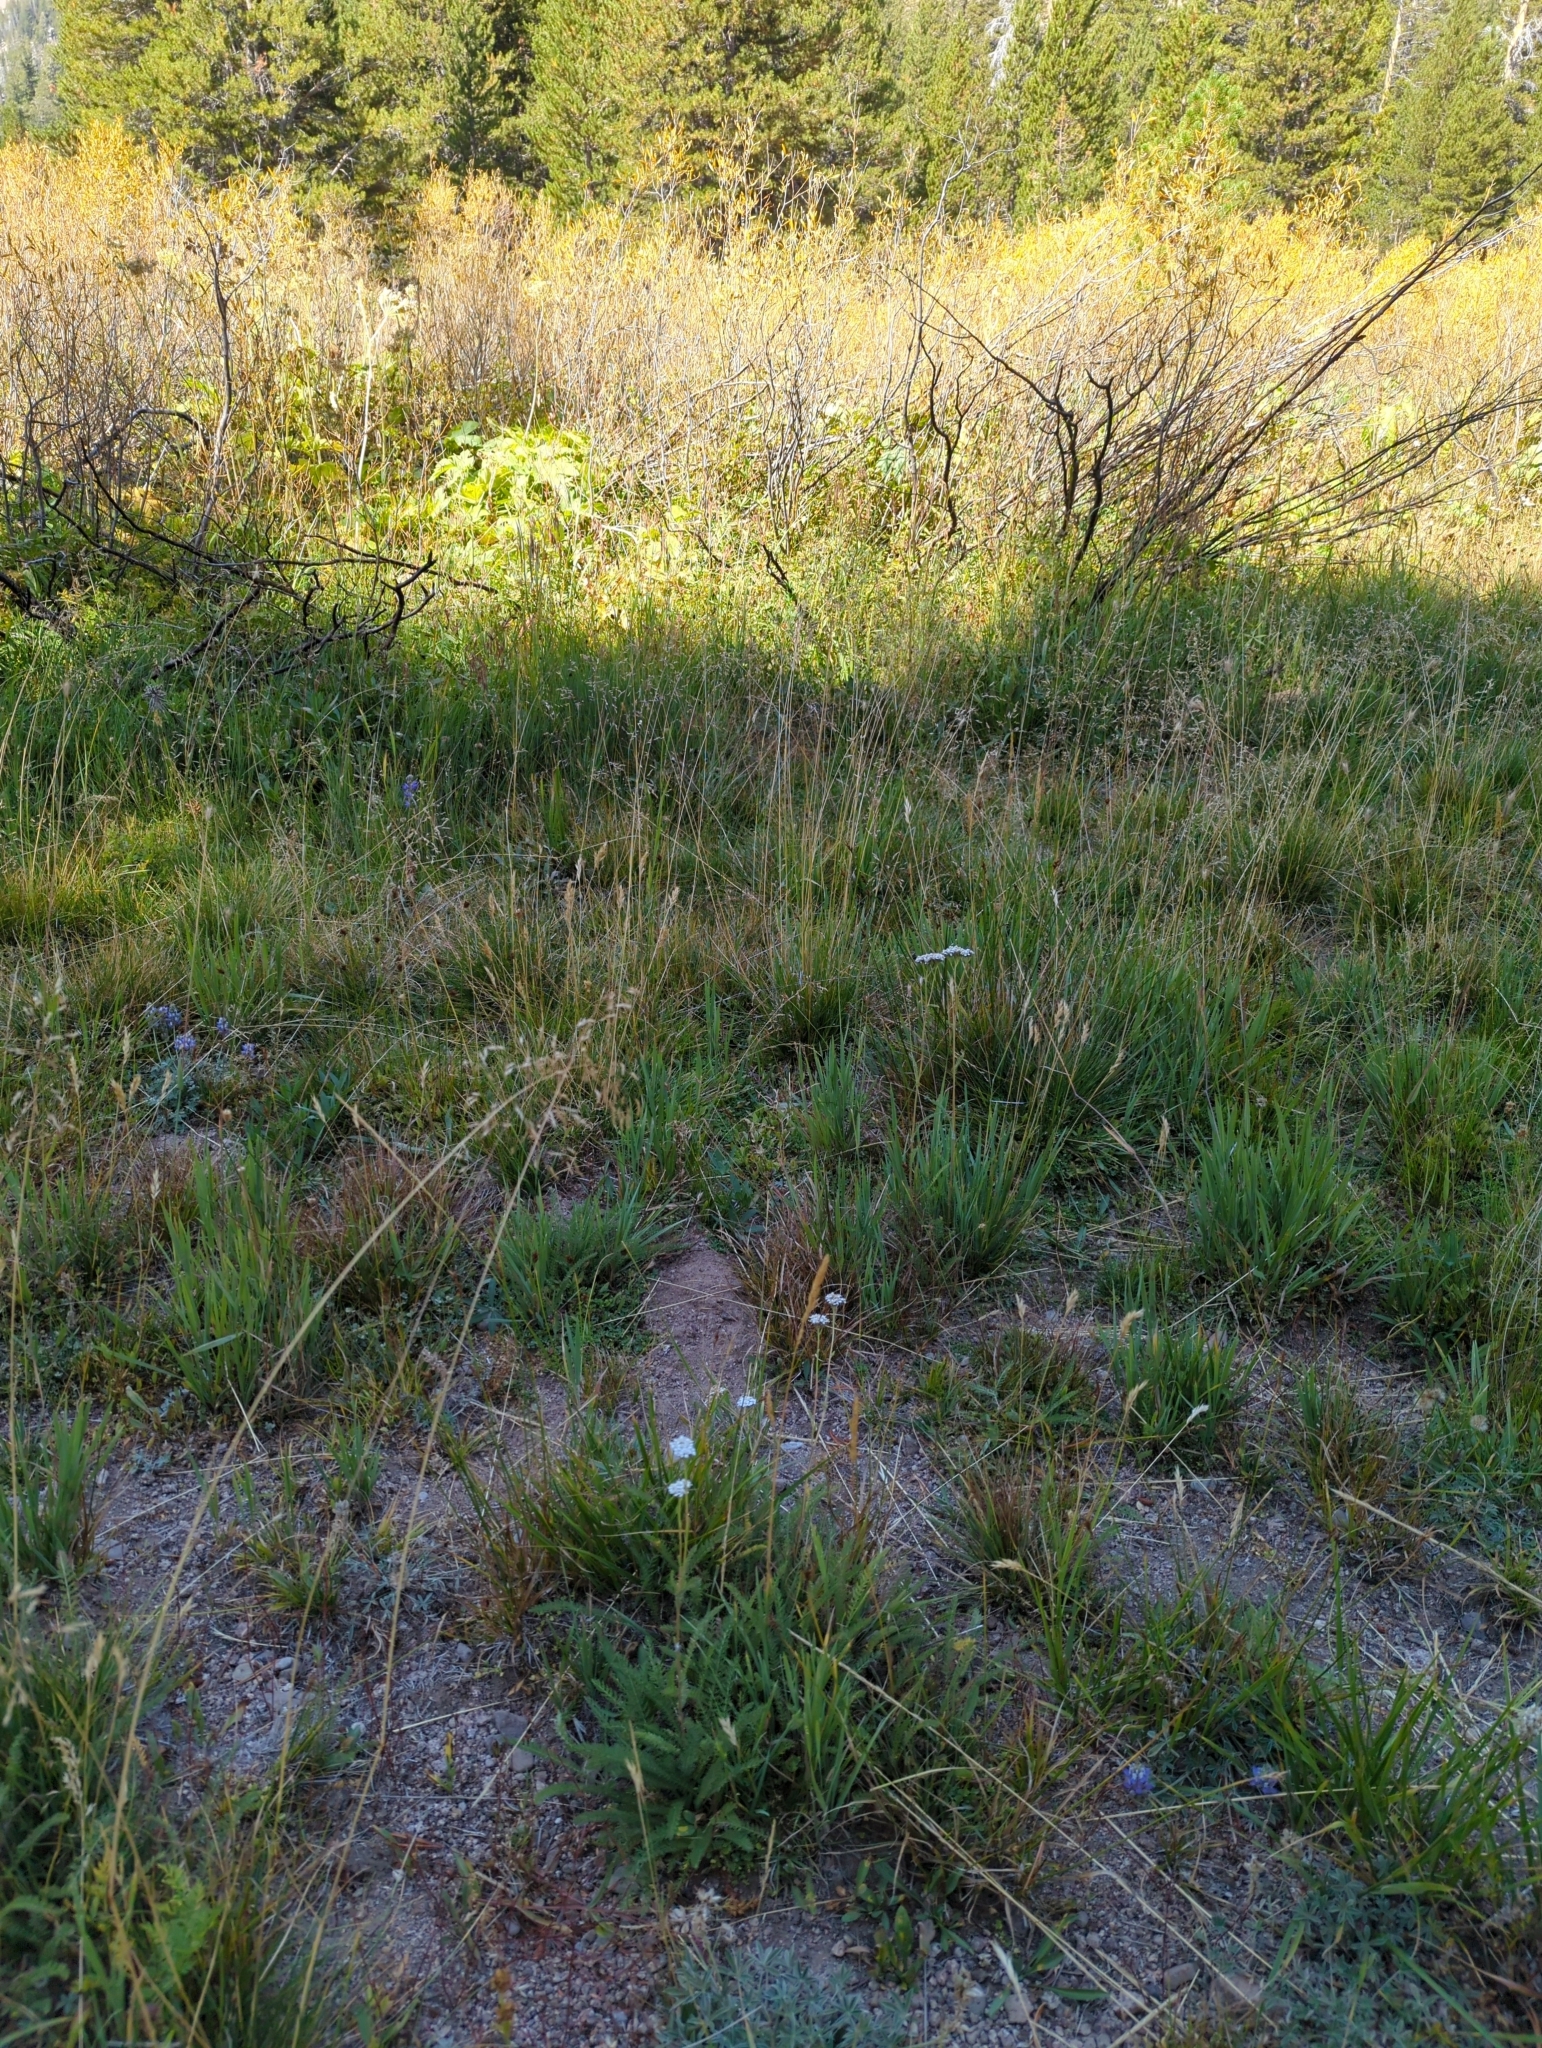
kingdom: Plantae
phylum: Tracheophyta
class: Magnoliopsida
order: Asterales
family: Asteraceae
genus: Achillea
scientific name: Achillea millefolium
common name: Yarrow
